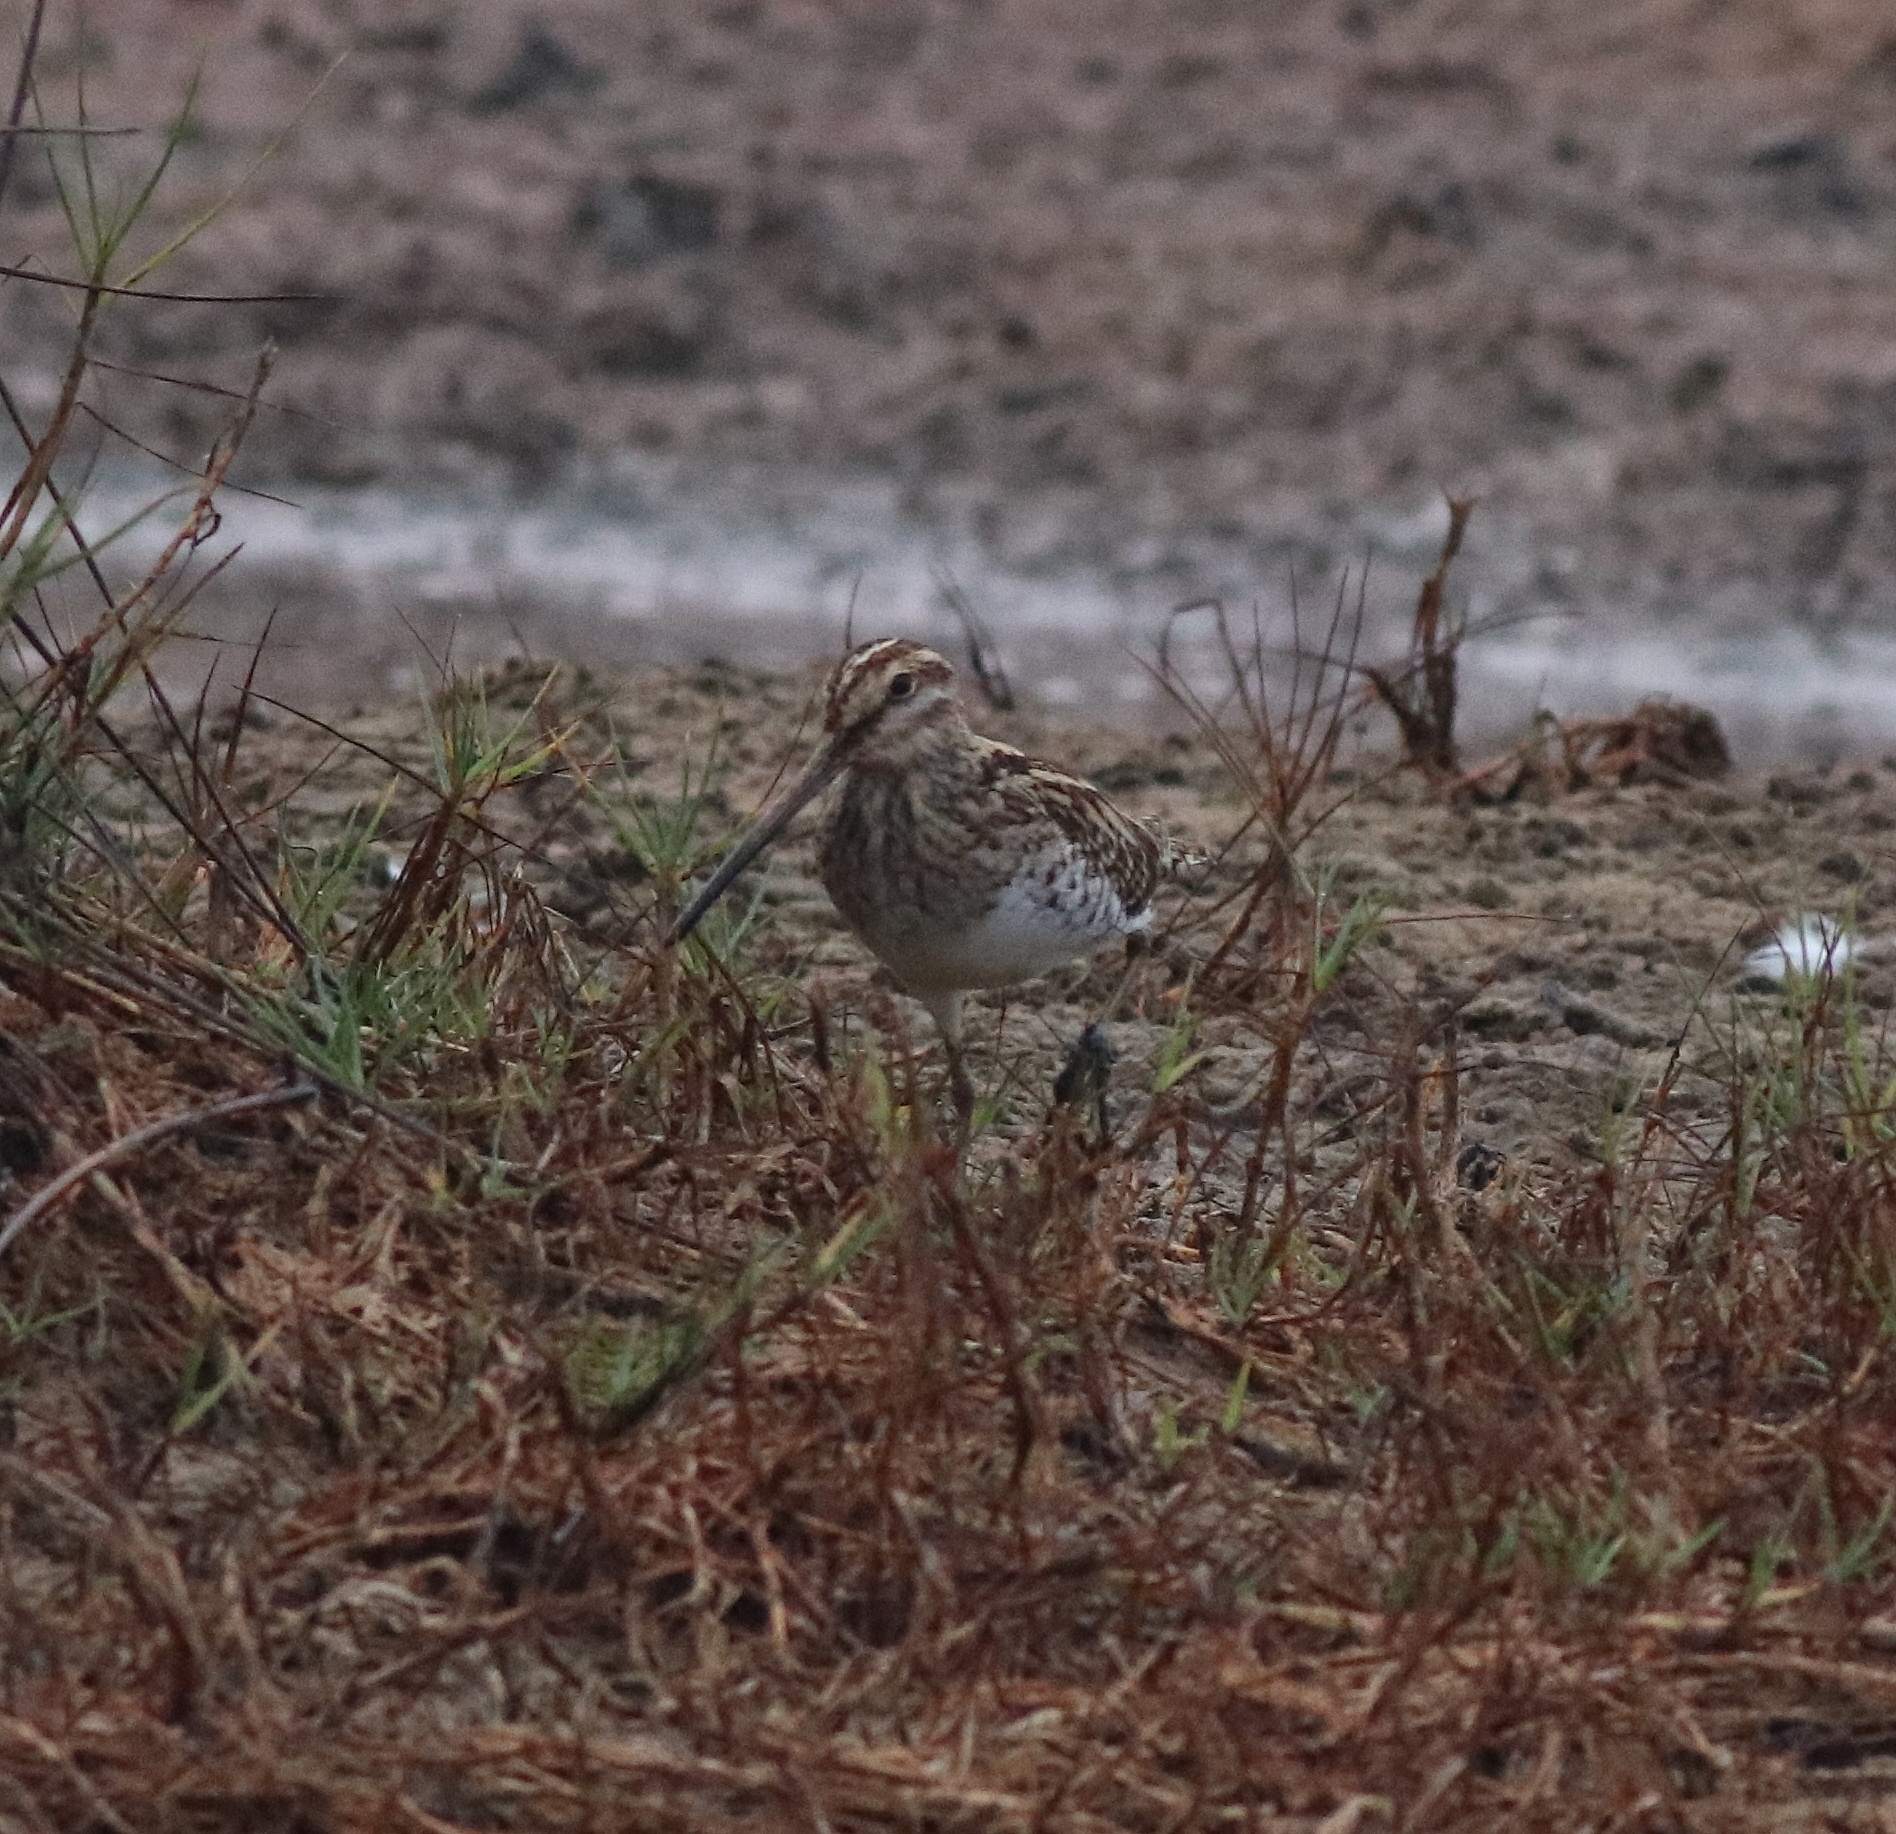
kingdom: Animalia
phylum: Chordata
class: Aves
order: Charadriiformes
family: Scolopacidae
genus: Gallinago
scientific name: Gallinago stenura
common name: Pin-tailed snipe
